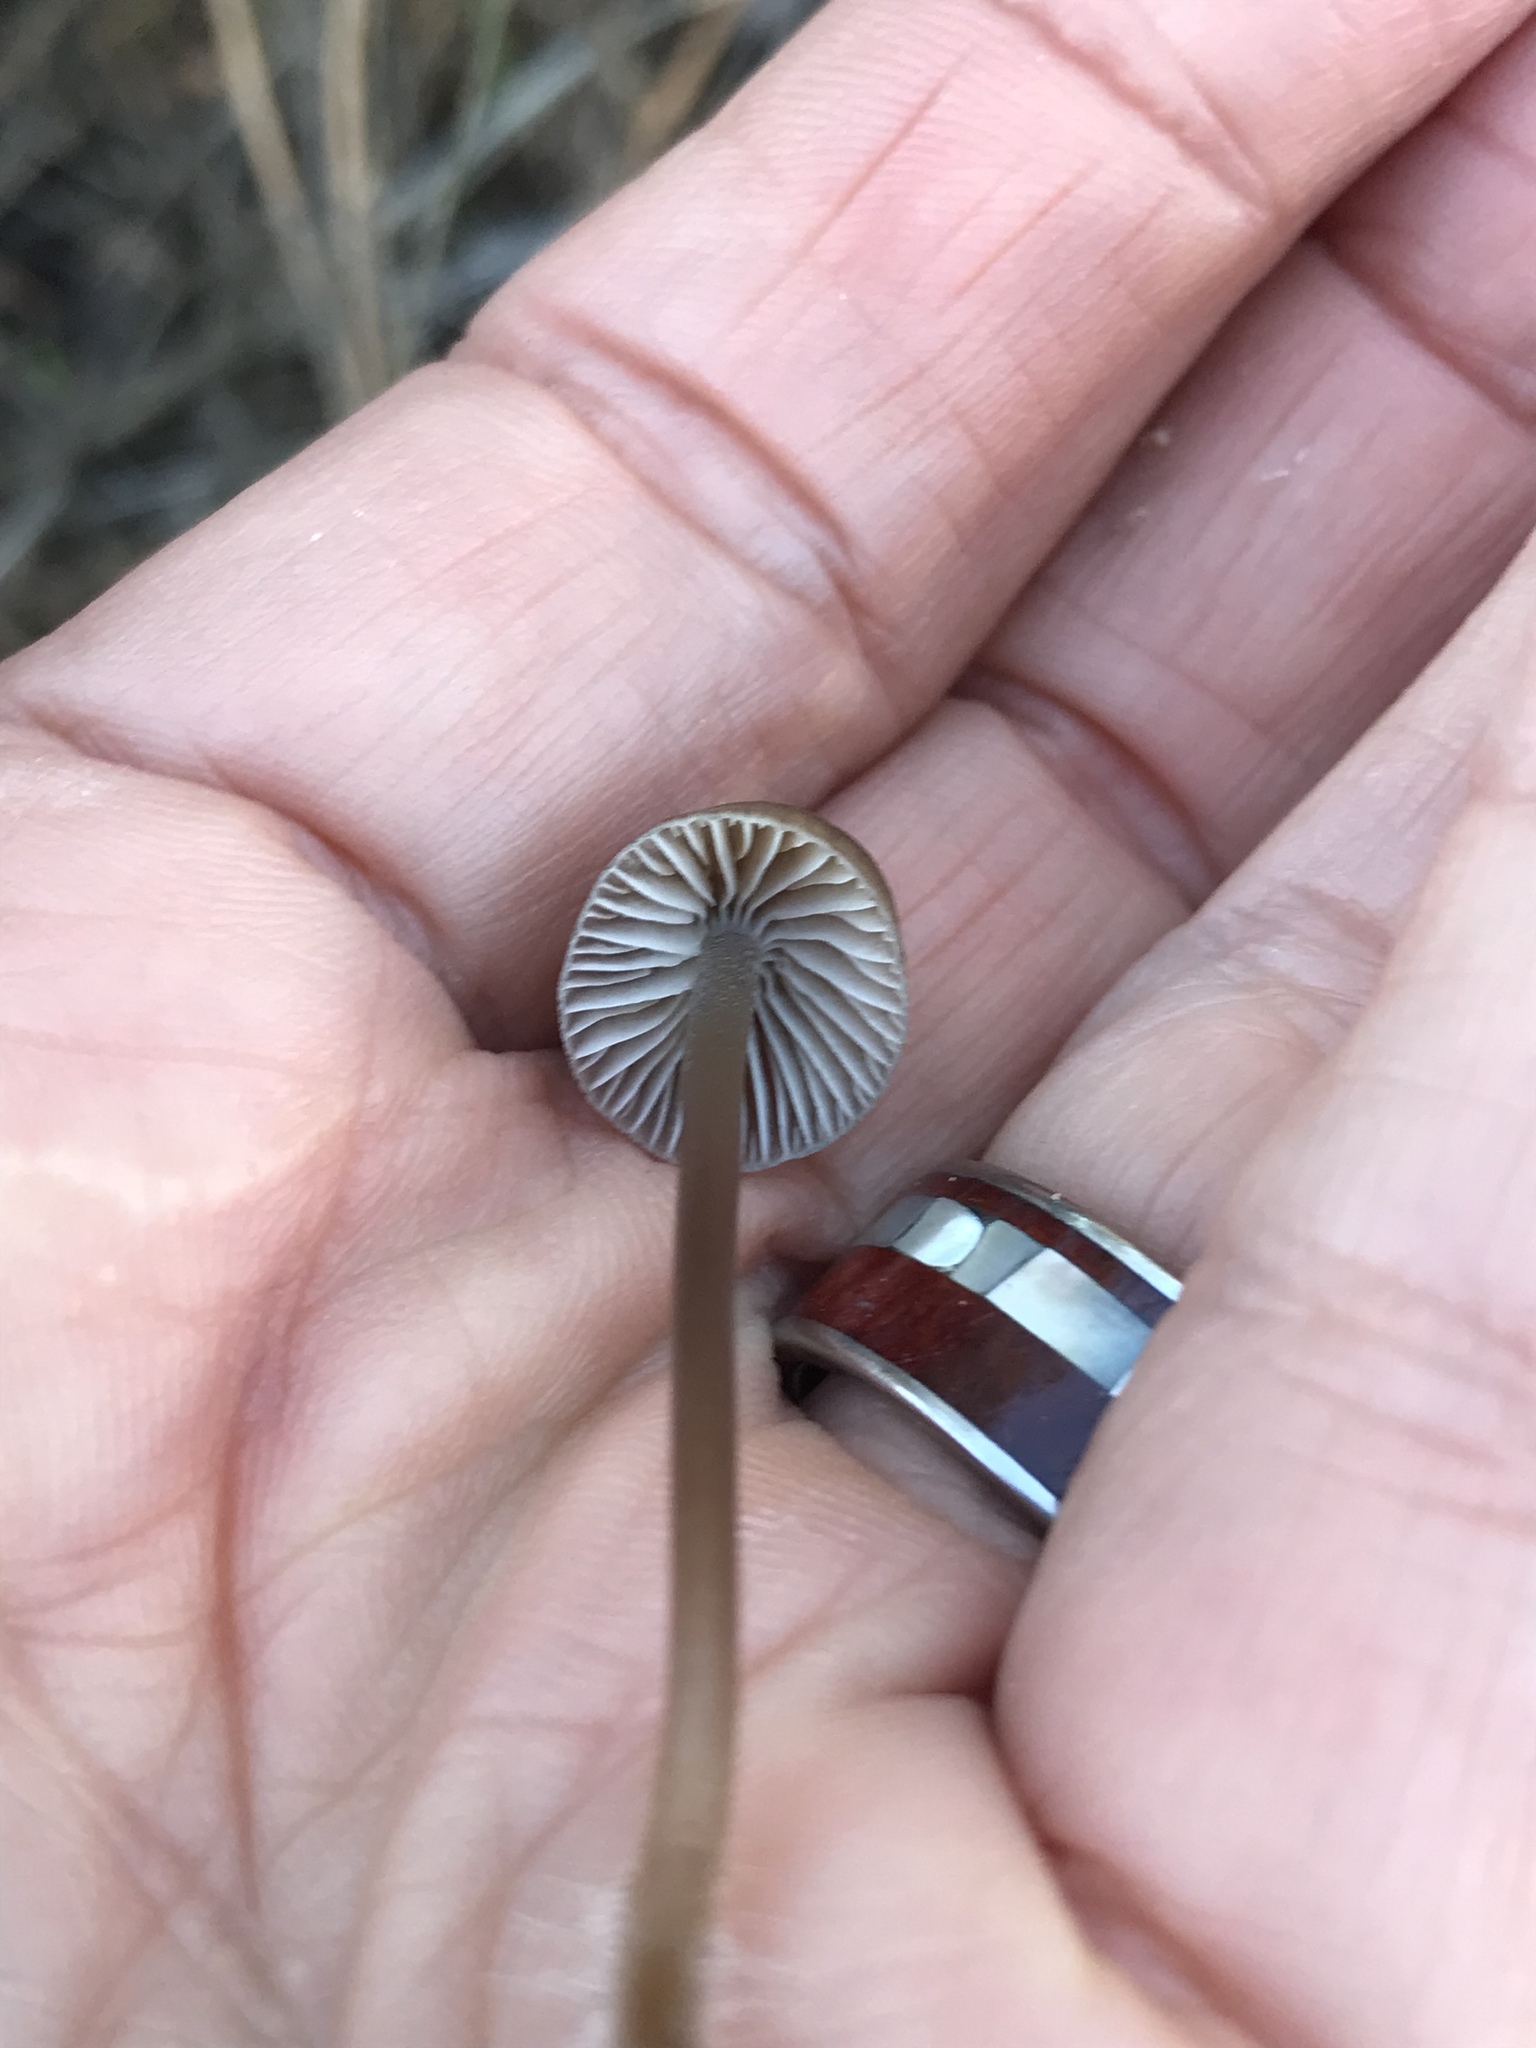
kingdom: Fungi
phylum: Basidiomycota
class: Agaricomycetes
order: Agaricales
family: Mycenaceae
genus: Mycena
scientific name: Mycena leptocephala
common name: Nitrous bonnet
